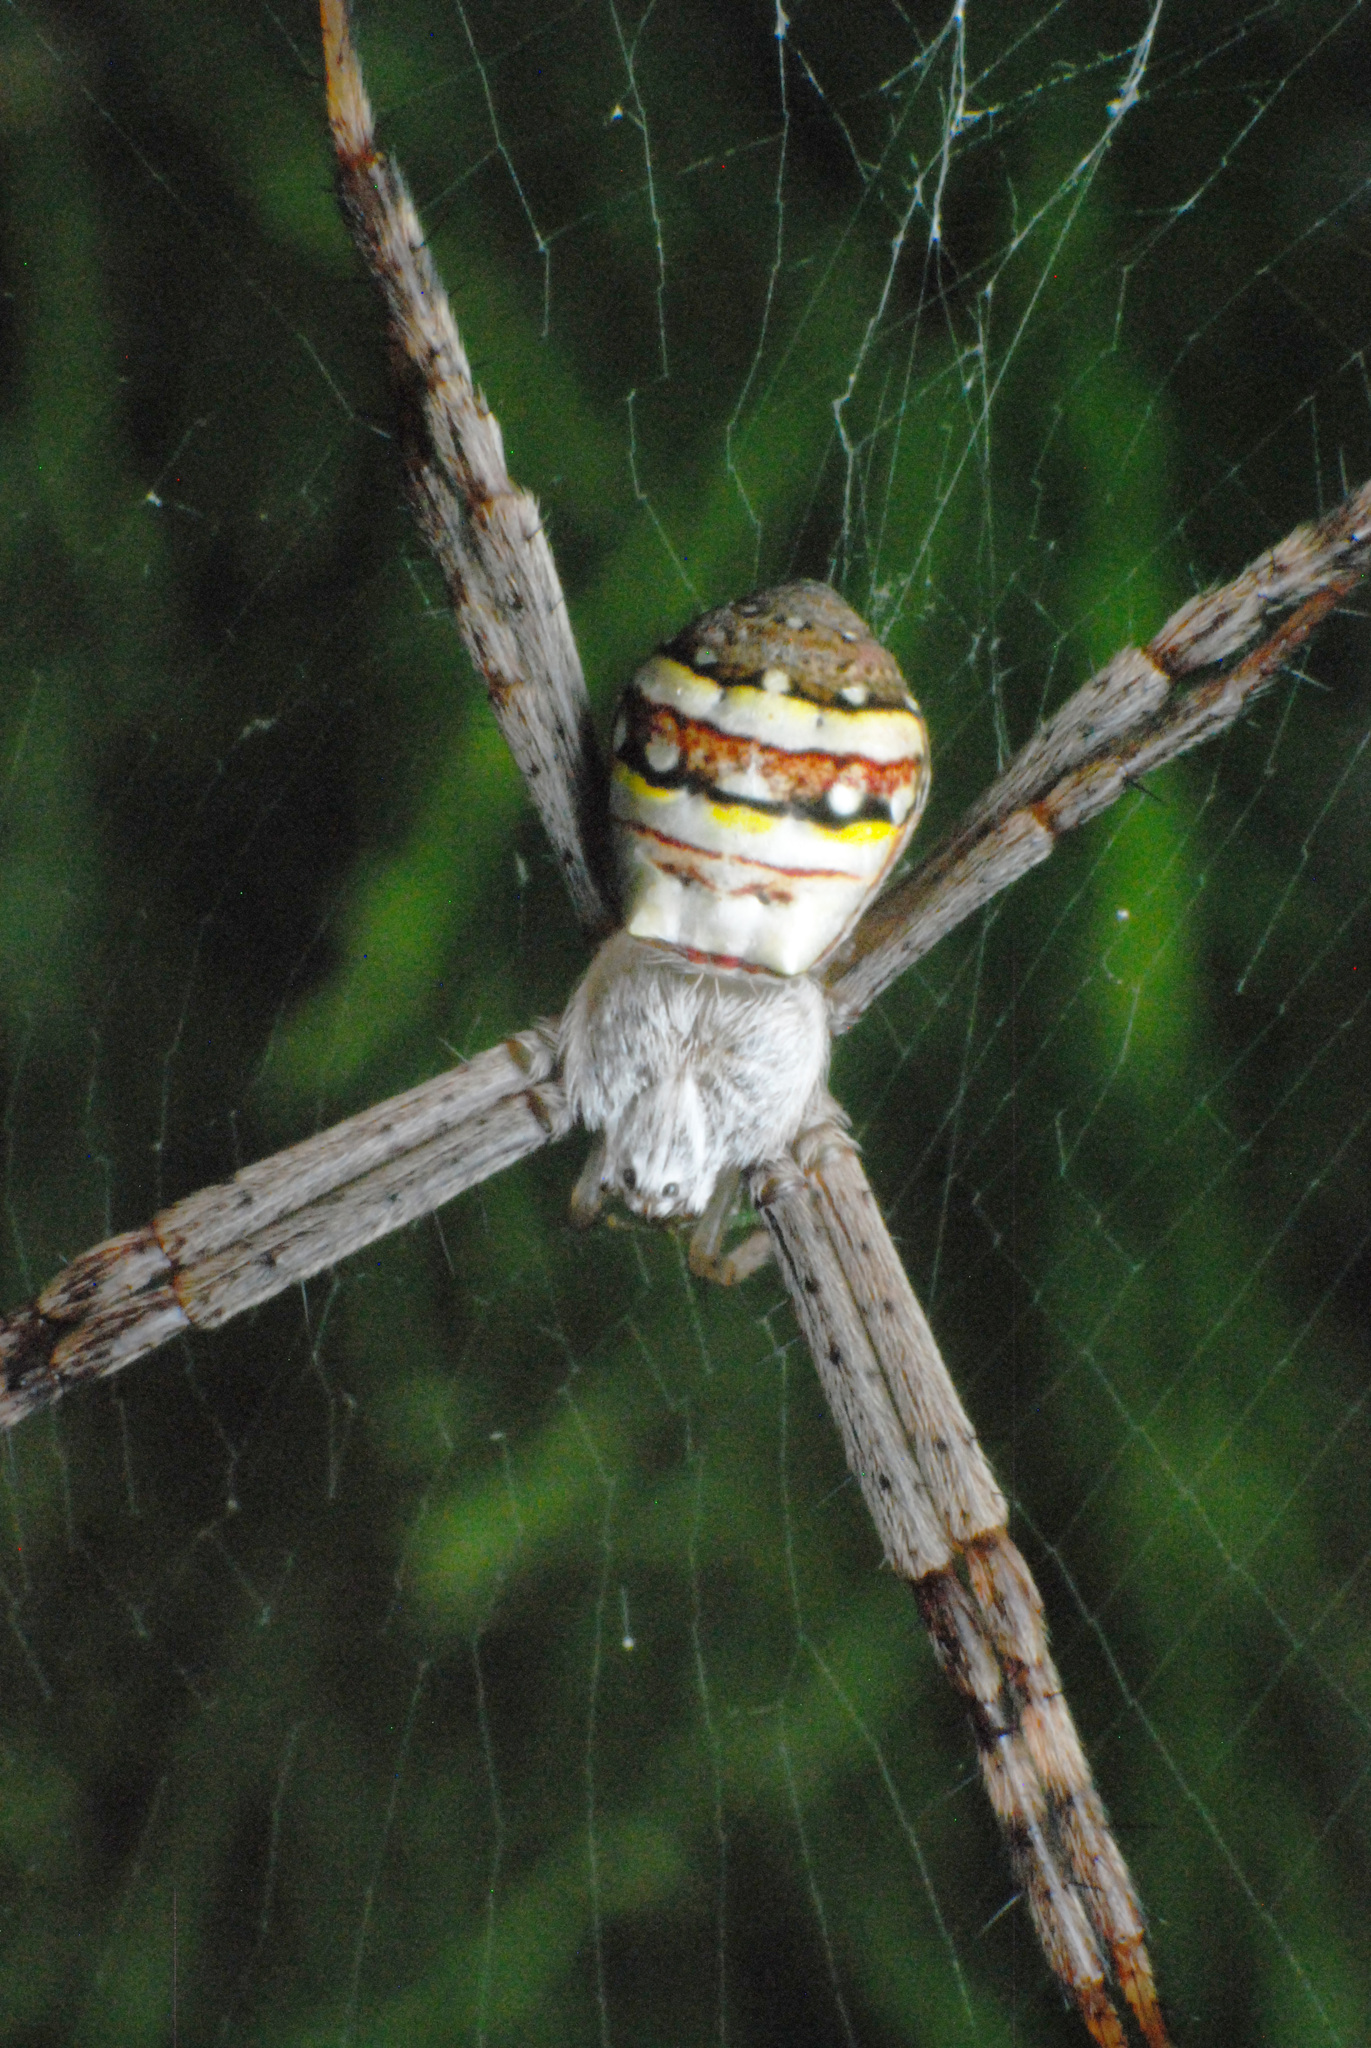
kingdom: Animalia
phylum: Arthropoda
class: Arachnida
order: Araneae
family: Araneidae
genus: Argiope
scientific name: Argiope keyserlingi
